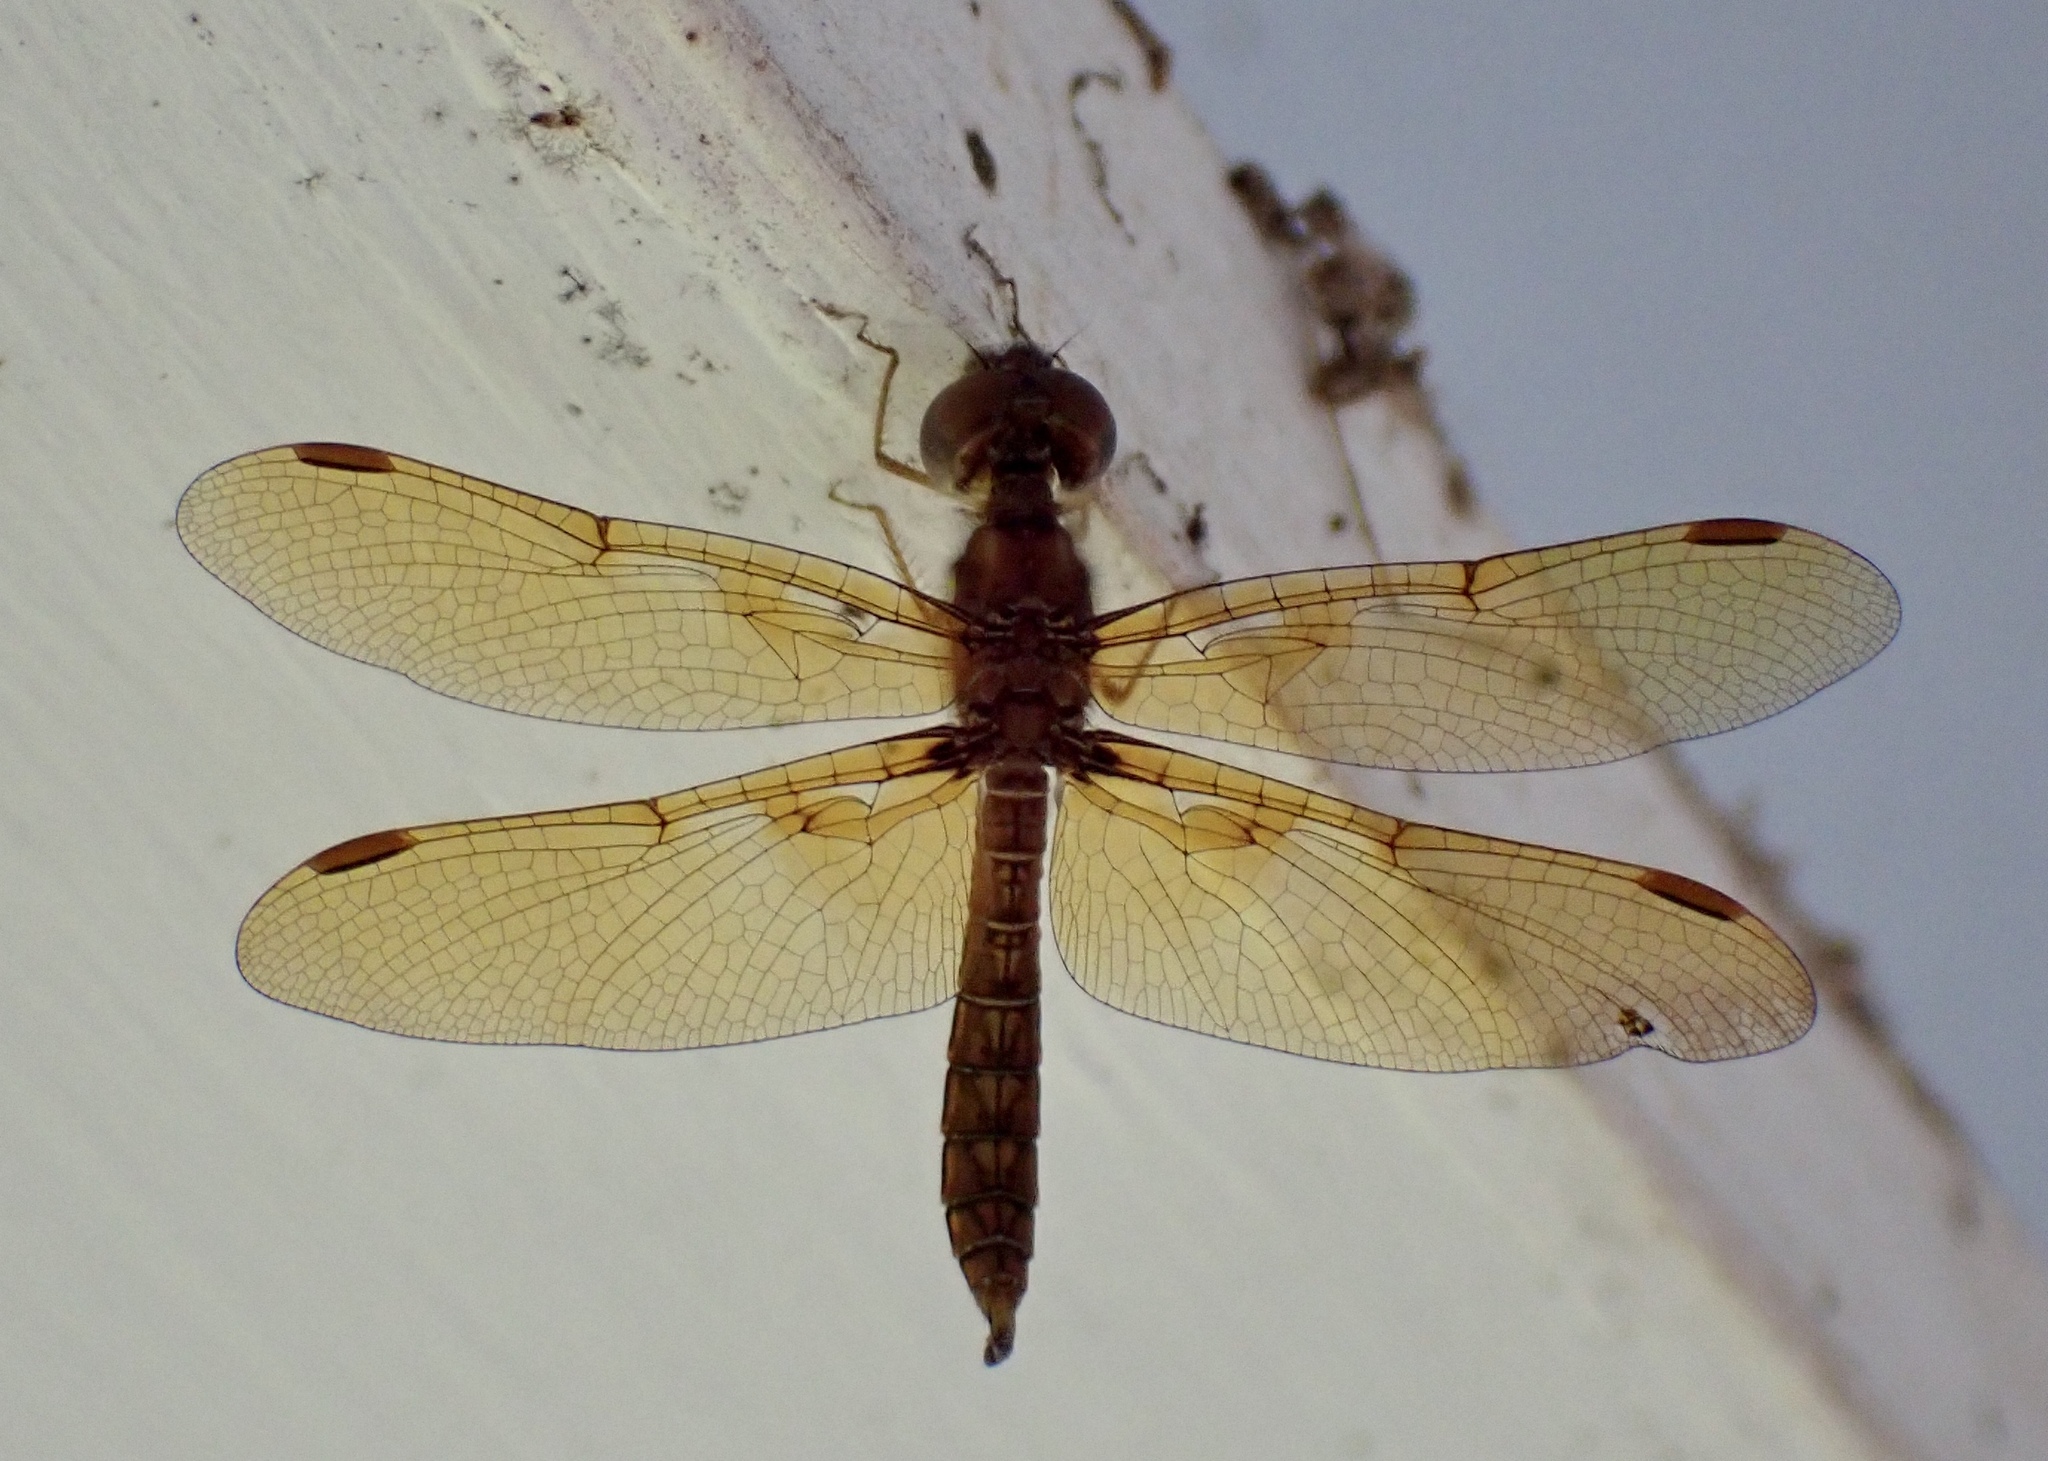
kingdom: Animalia
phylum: Arthropoda
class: Insecta
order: Odonata
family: Libellulidae
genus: Perithemis
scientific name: Perithemis tenera
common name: Eastern amberwing
